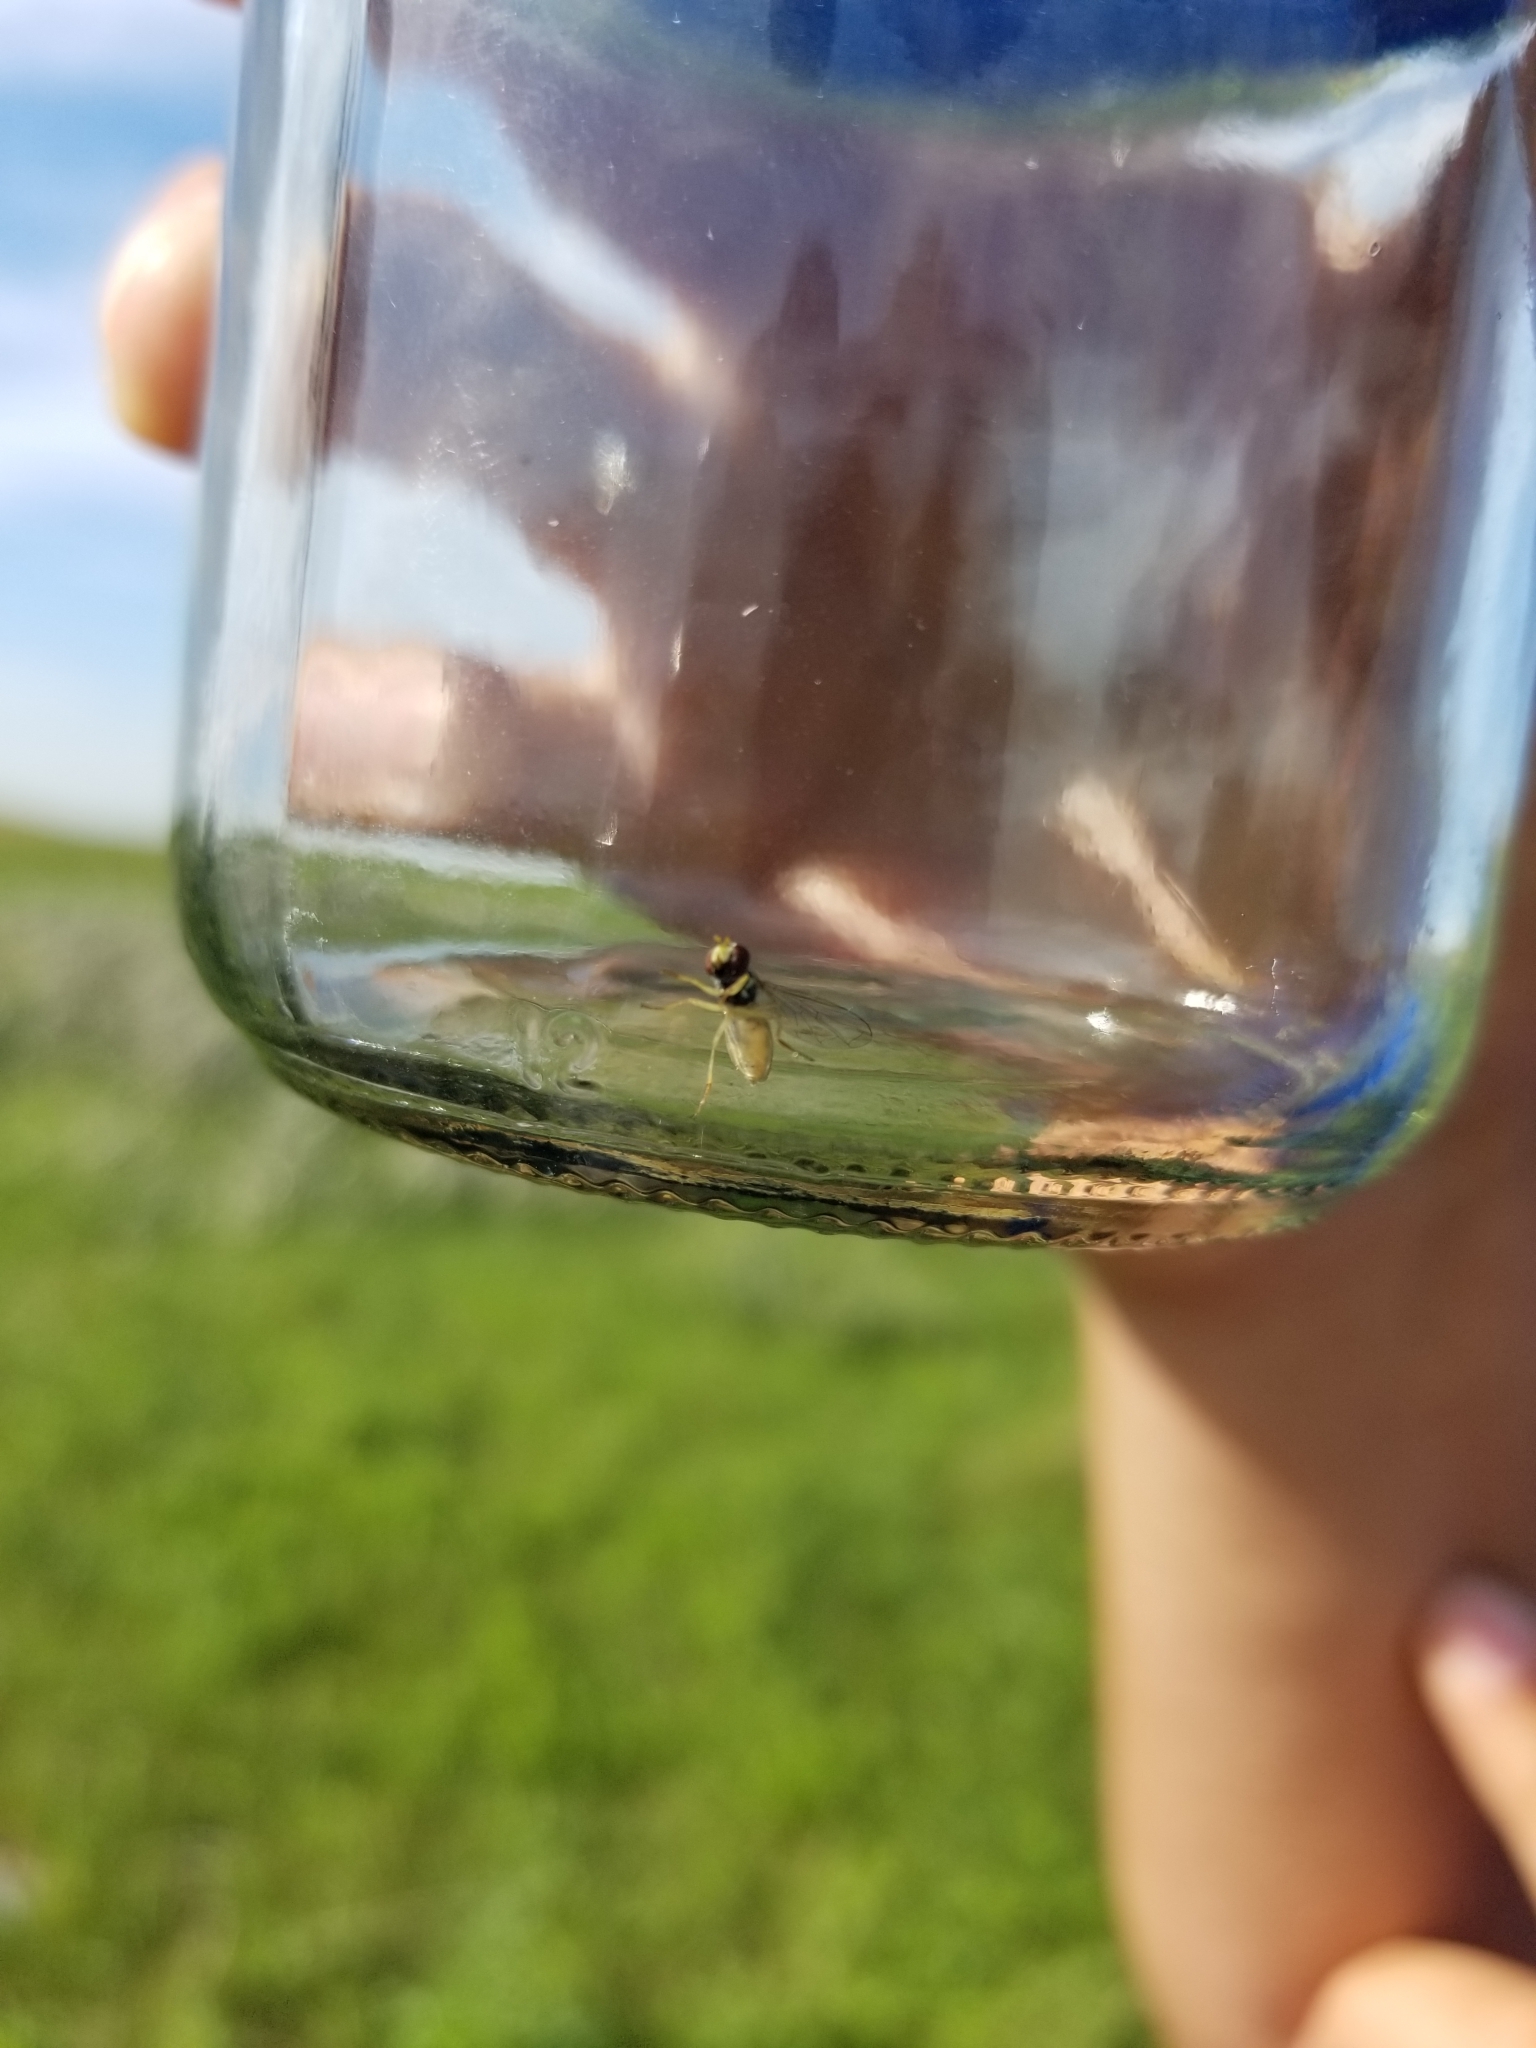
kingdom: Animalia
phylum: Arthropoda
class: Insecta
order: Diptera
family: Syrphidae
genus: Toxomerus
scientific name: Toxomerus marginatus
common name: Syrphid fly
